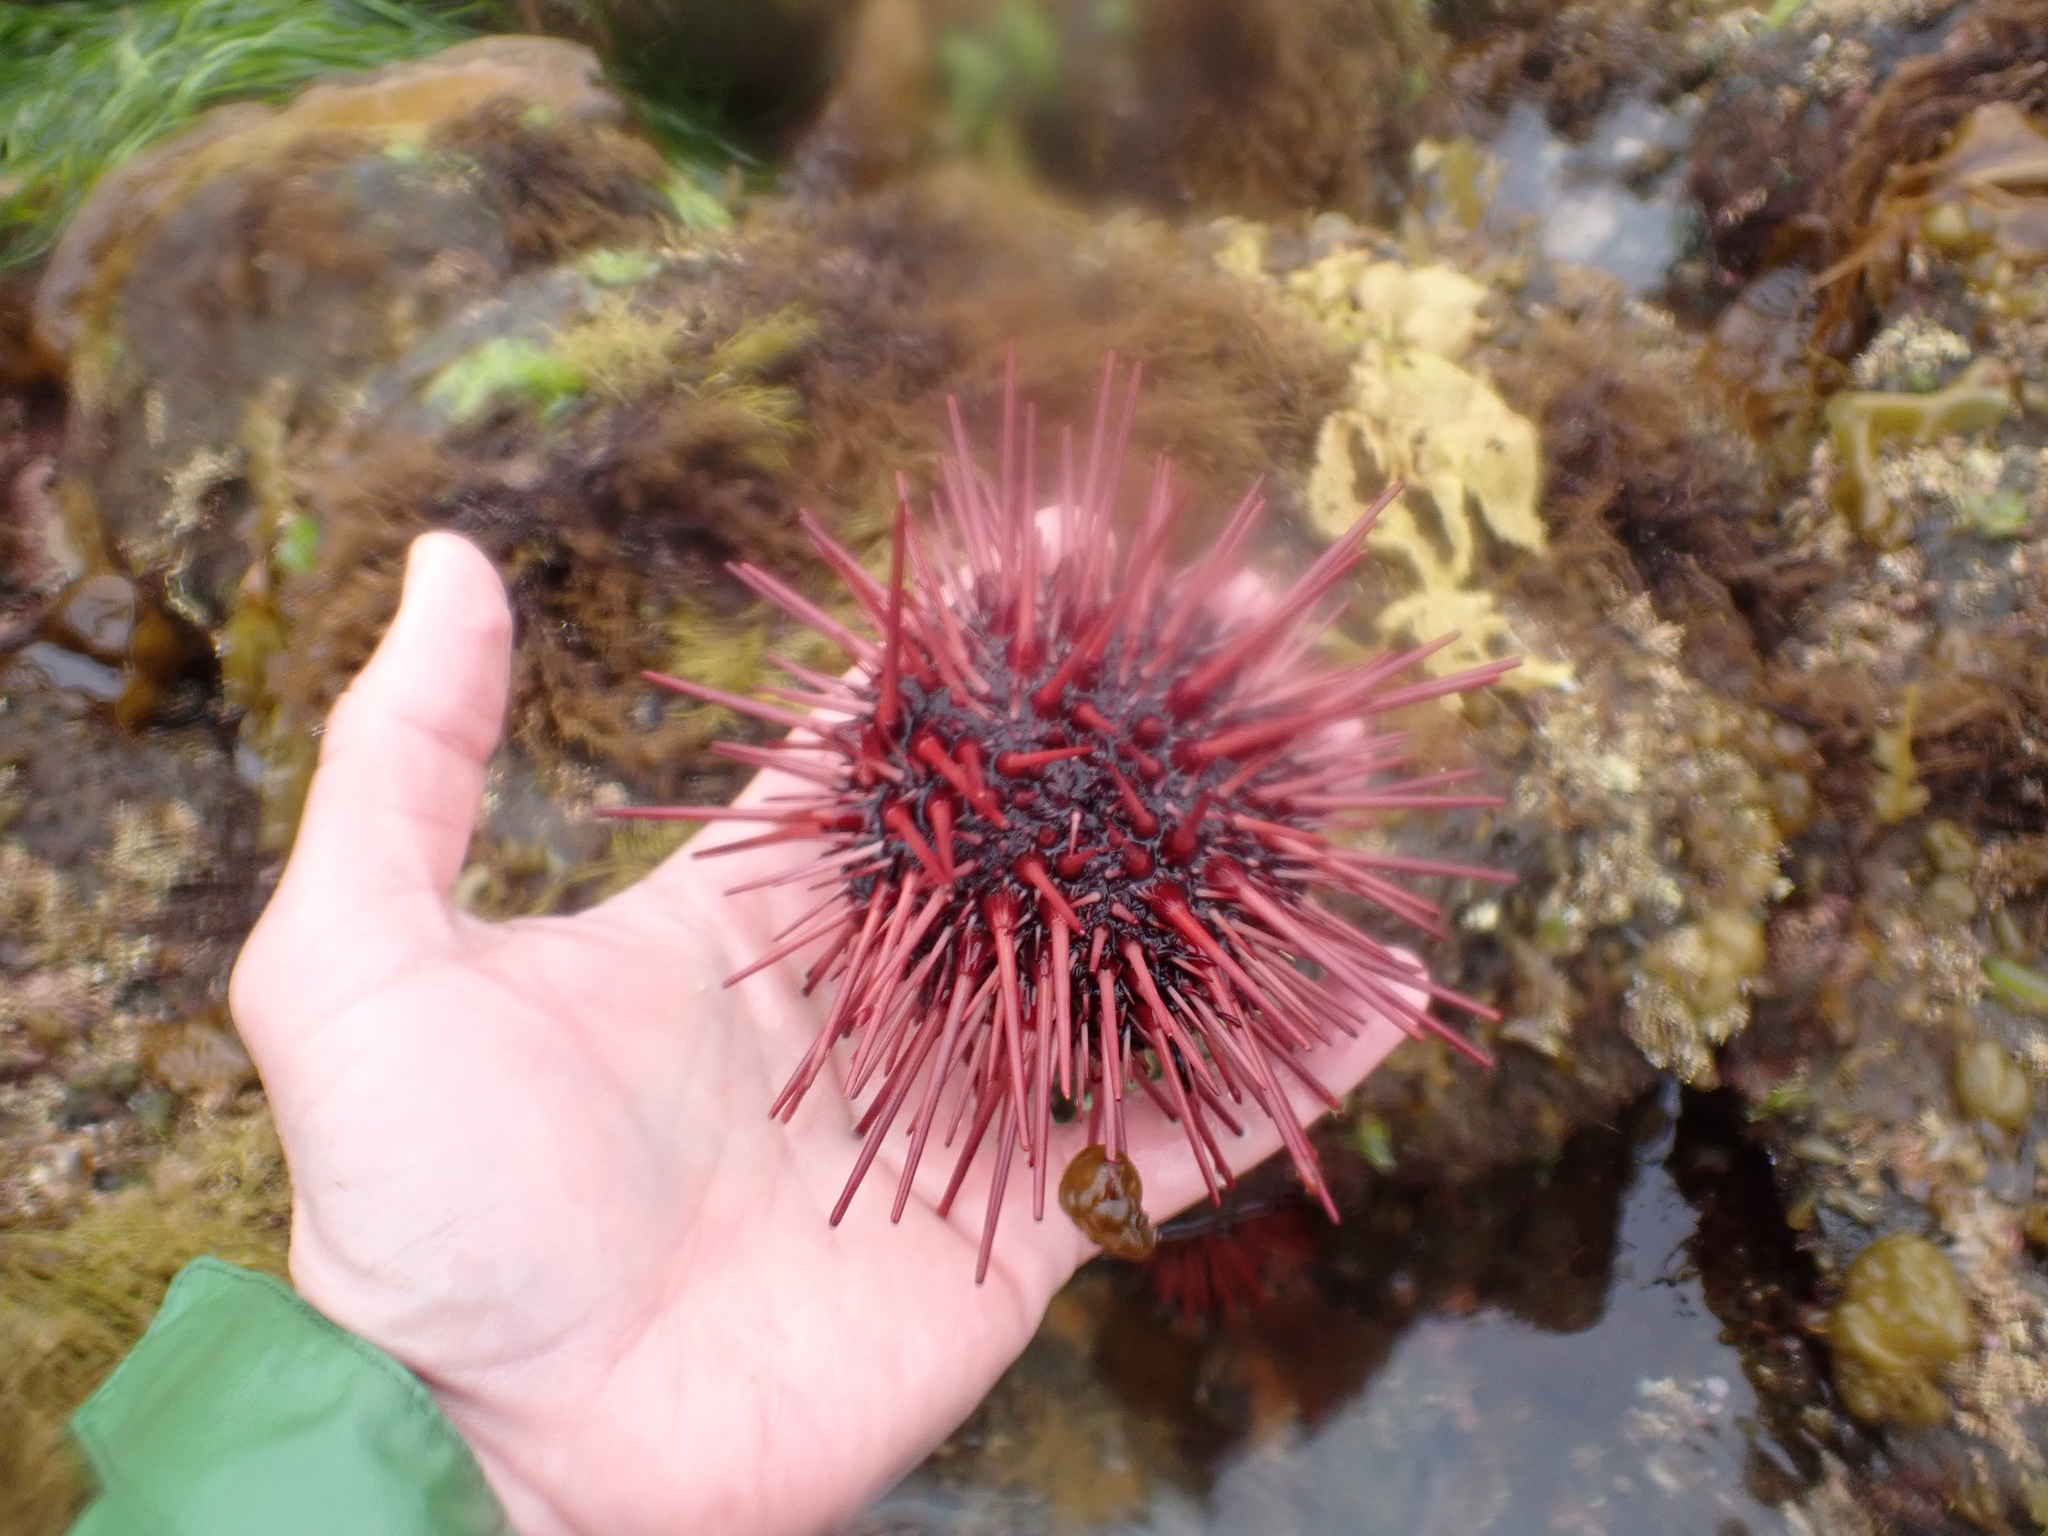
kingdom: Animalia
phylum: Echinodermata
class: Echinoidea
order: Camarodonta
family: Strongylocentrotidae
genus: Mesocentrotus
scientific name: Mesocentrotus franciscanus
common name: Red sea urchin
